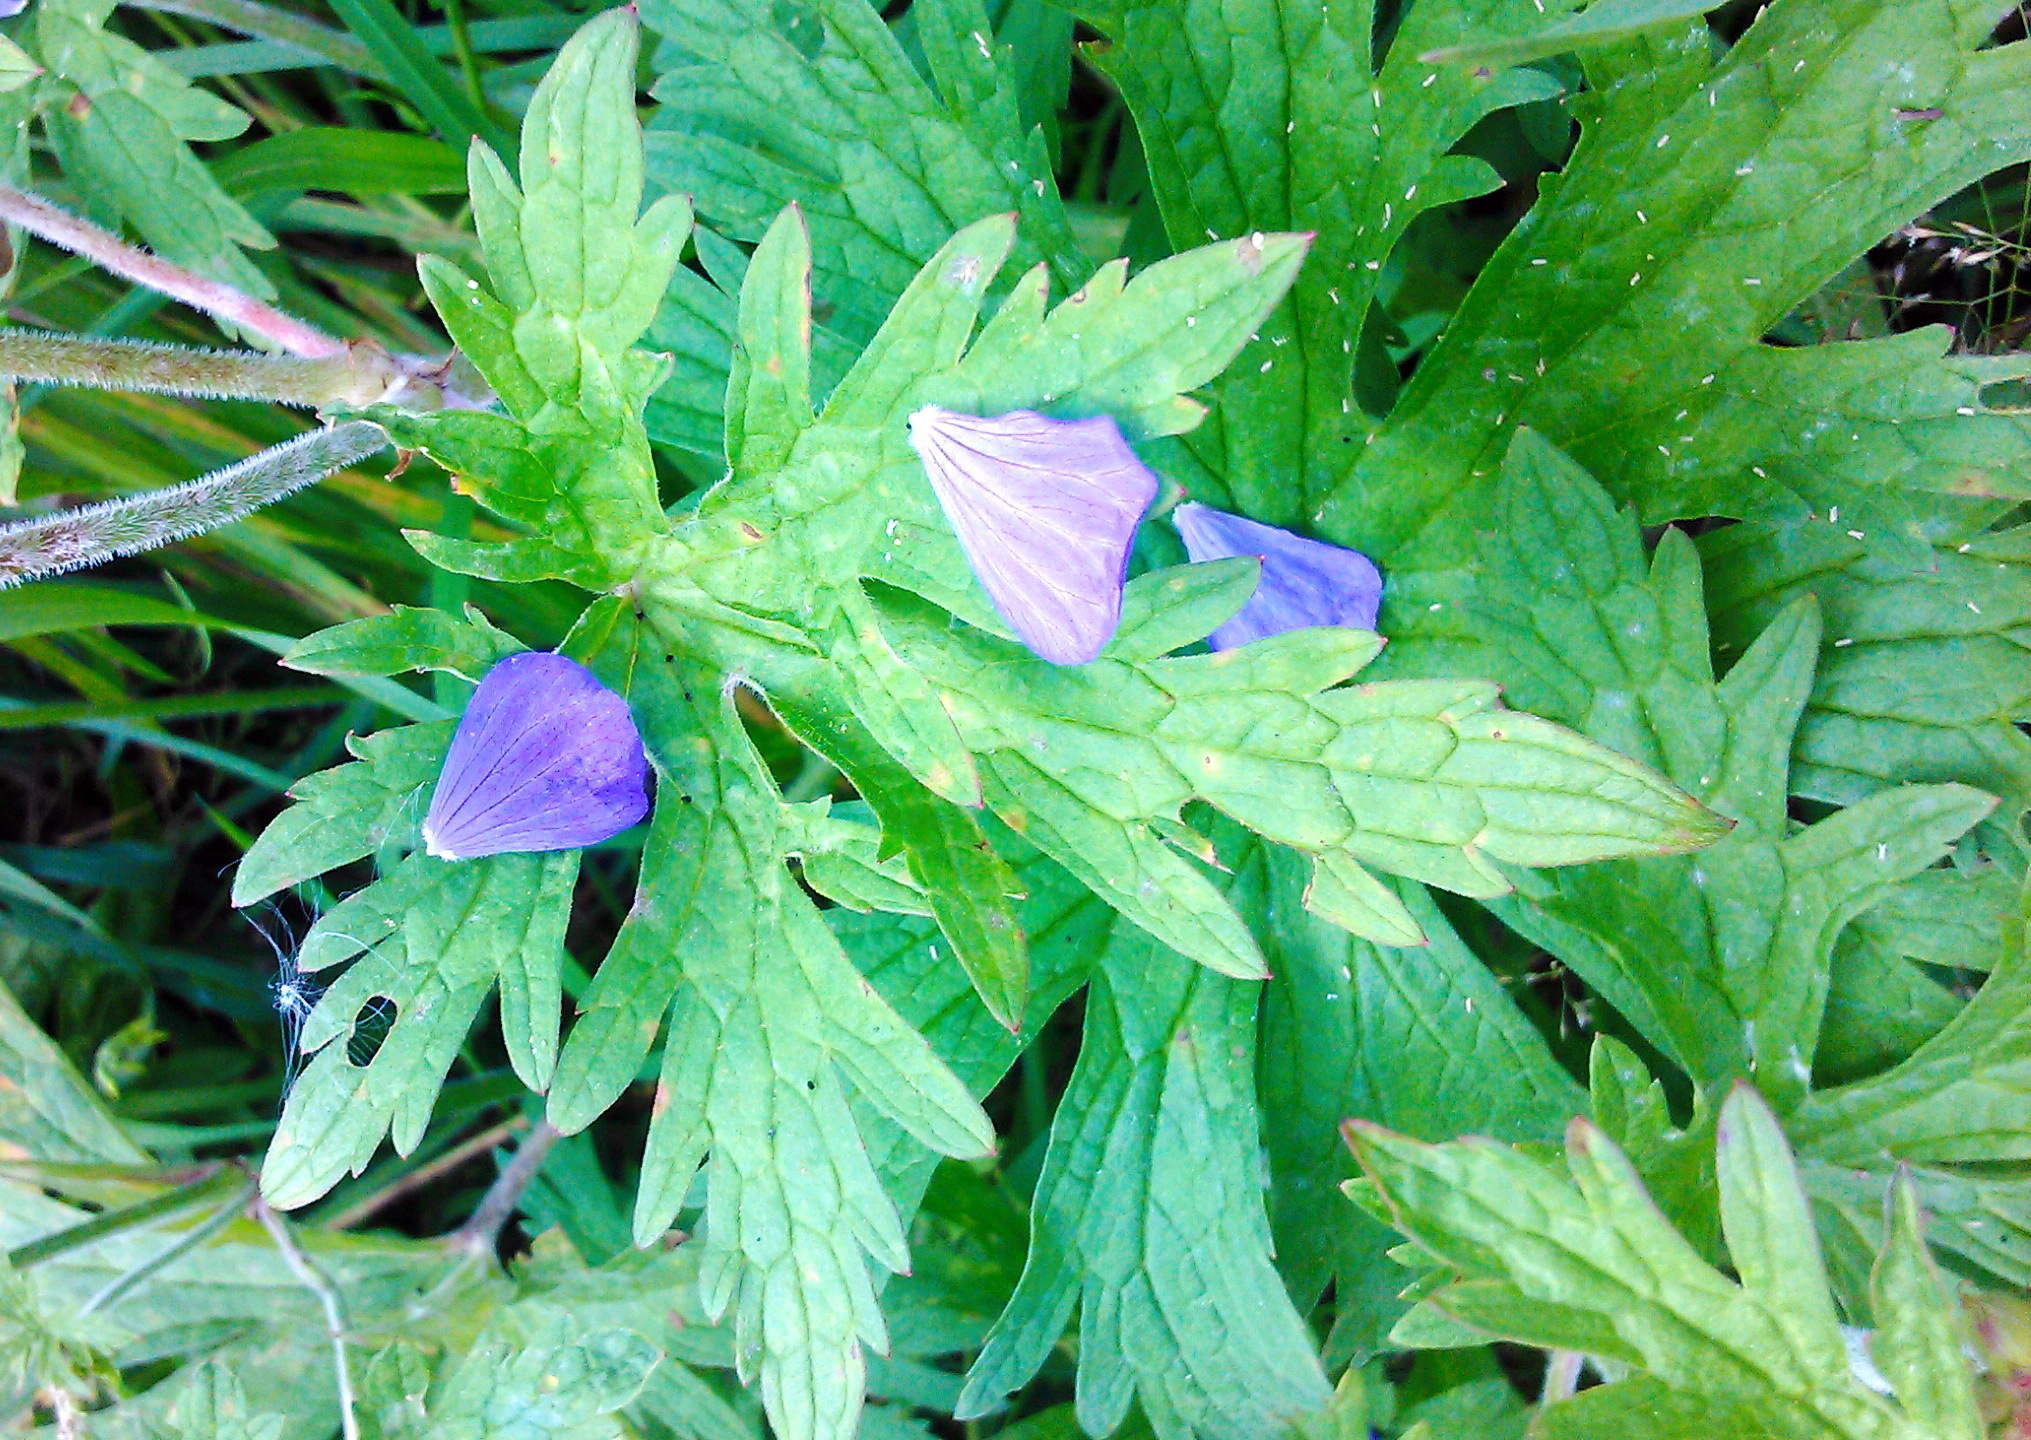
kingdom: Plantae
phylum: Tracheophyta
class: Magnoliopsida
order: Geraniales
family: Geraniaceae
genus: Geranium
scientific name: Geranium pratense
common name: Meadow crane's-bill
